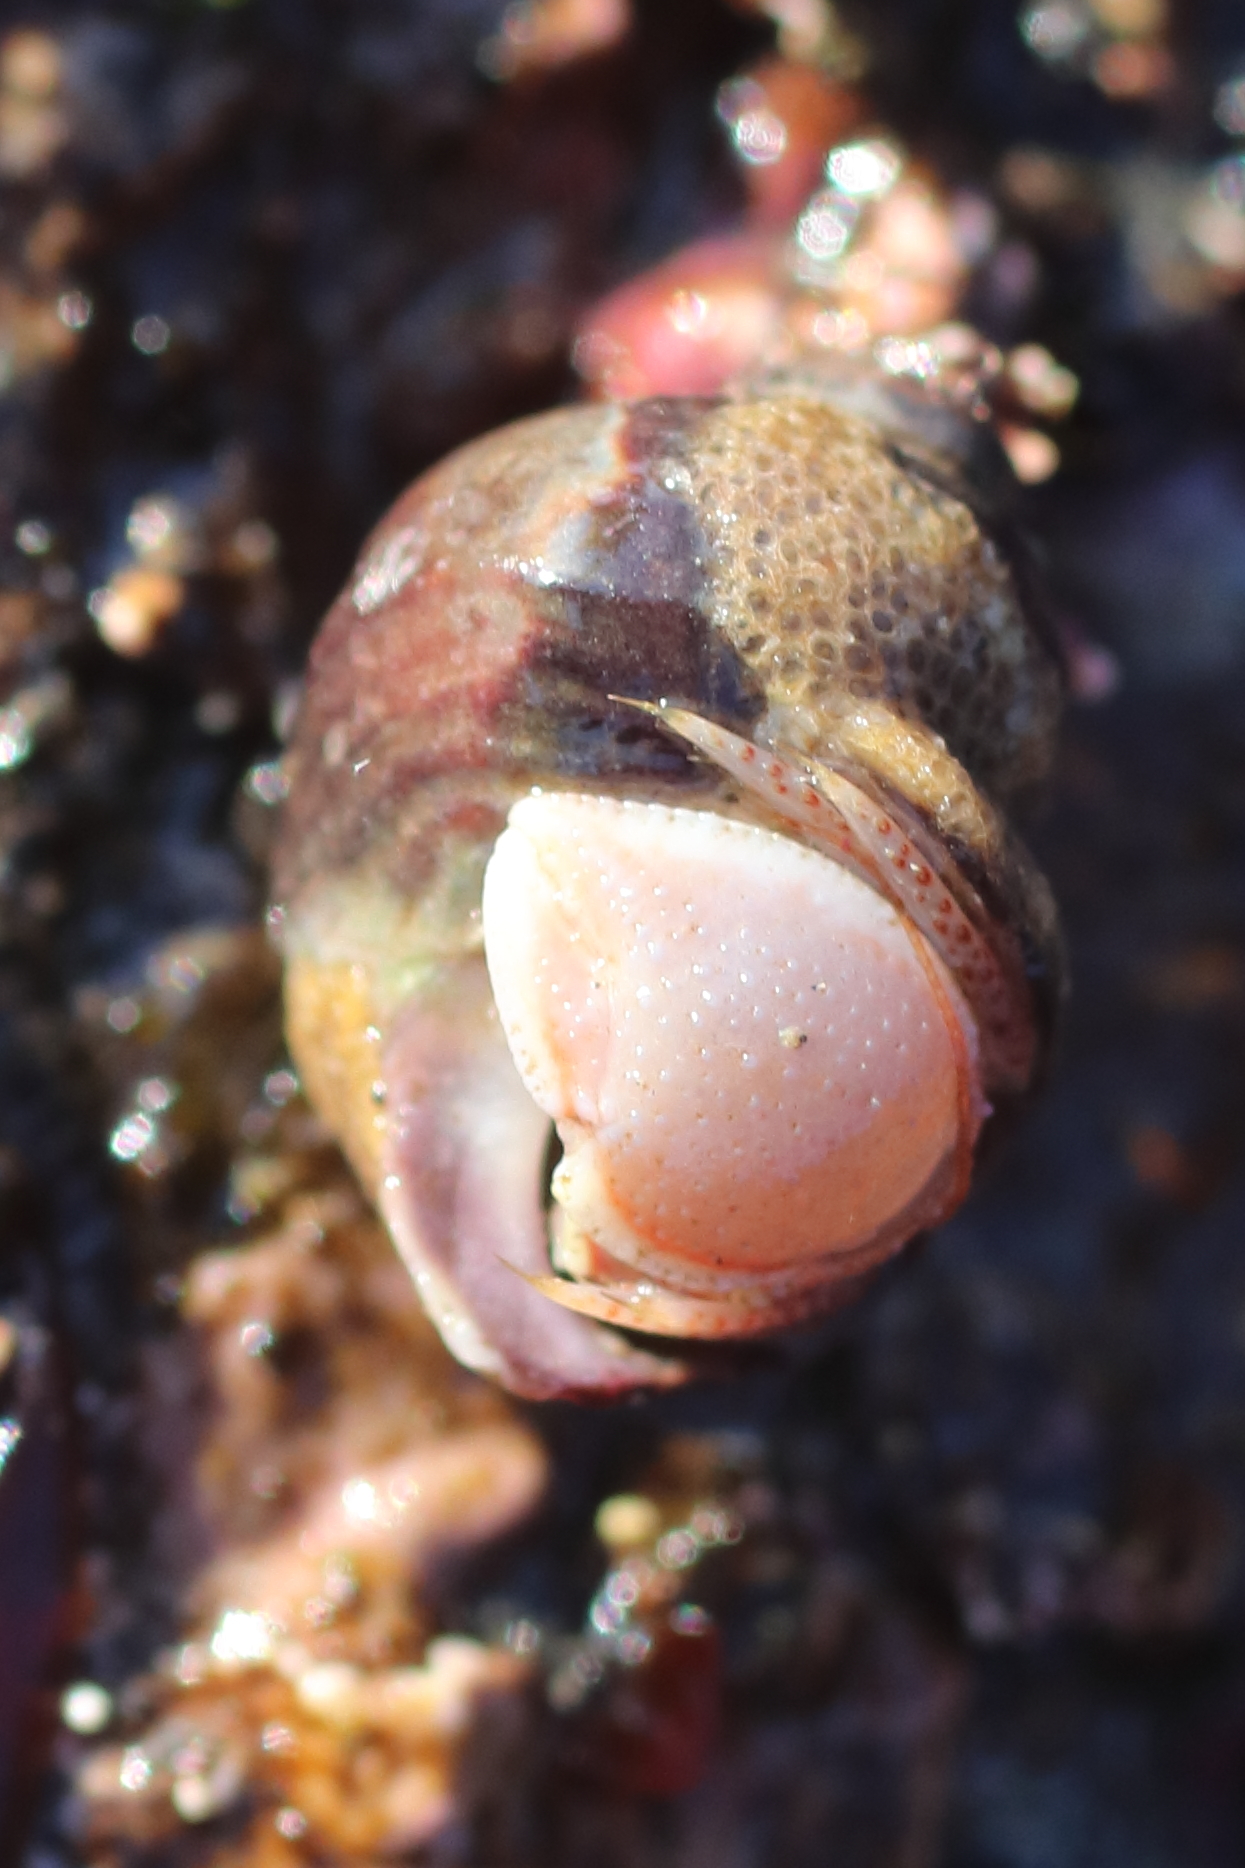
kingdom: Animalia
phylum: Arthropoda
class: Malacostraca
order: Decapoda
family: Paguridae
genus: Elassochirus
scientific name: Elassochirus tenuimanus
